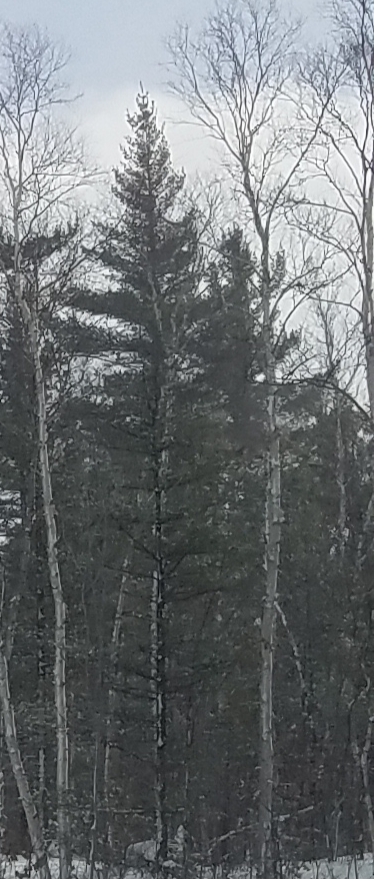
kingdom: Plantae
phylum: Tracheophyta
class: Pinopsida
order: Pinales
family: Pinaceae
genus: Pinus
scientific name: Pinus strobus
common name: Weymouth pine
